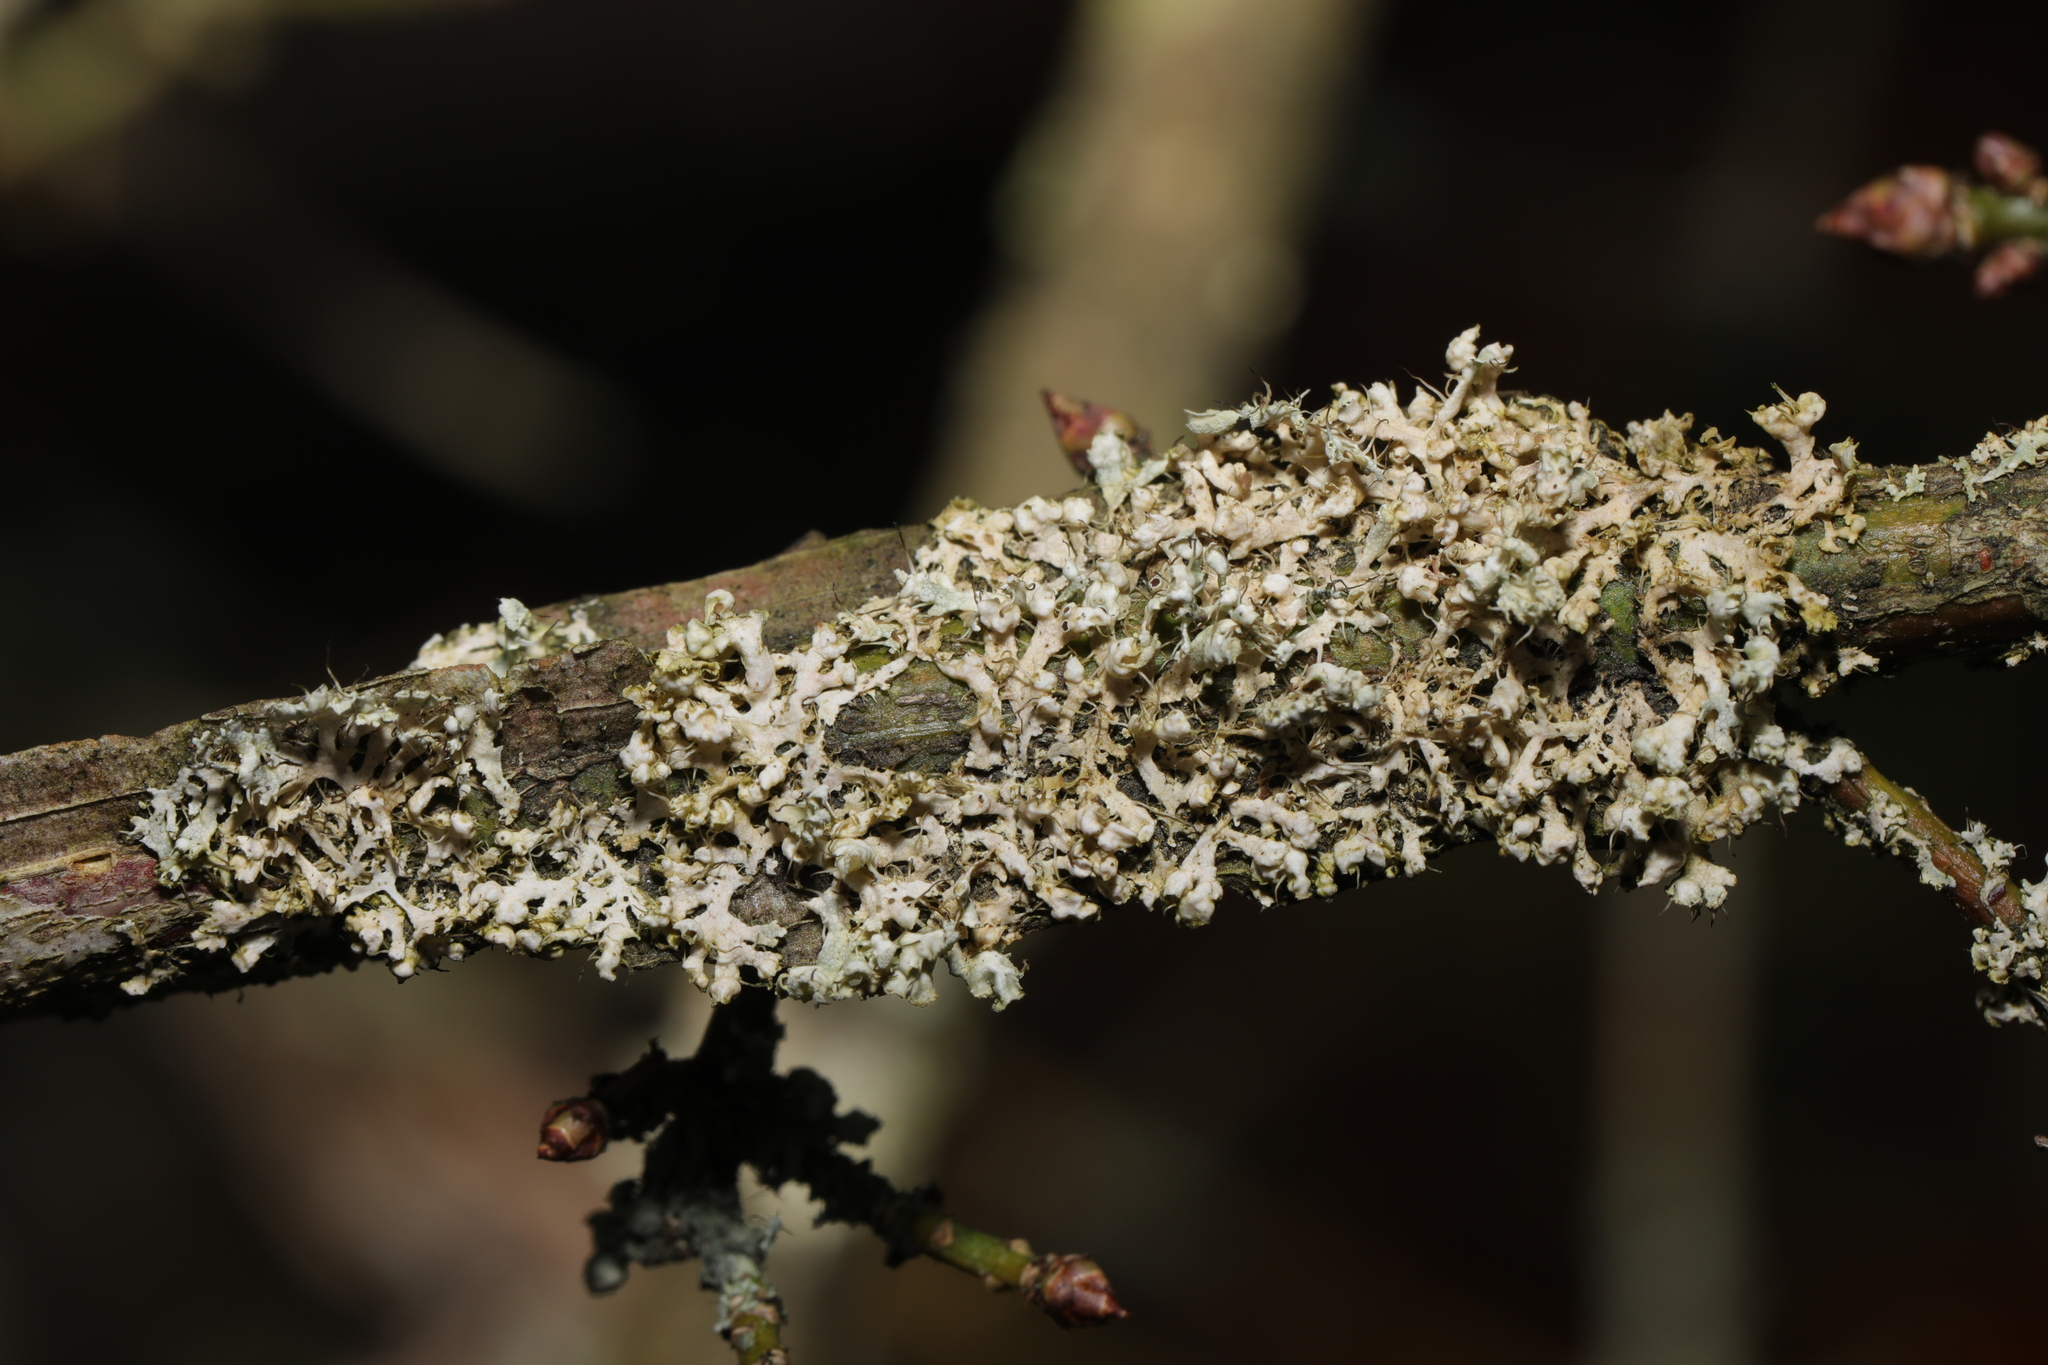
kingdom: Fungi
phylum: Ascomycota
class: Lecanoromycetes
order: Caliciales
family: Physciaceae
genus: Physcia
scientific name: Physcia adscendens
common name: Hooded rosette lichen
